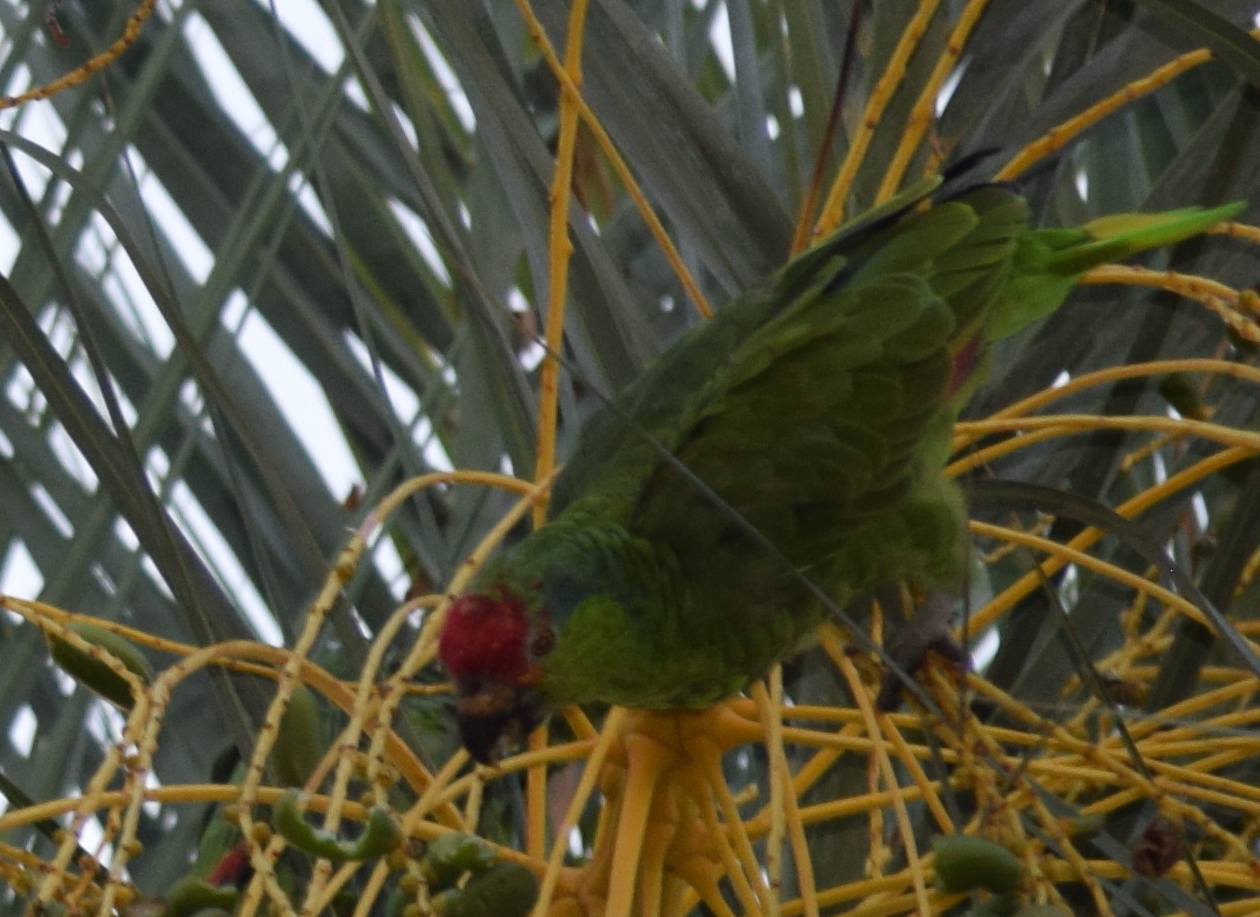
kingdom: Animalia
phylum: Chordata
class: Aves
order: Psittaciformes
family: Psittacidae
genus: Amazona
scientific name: Amazona viridigenalis
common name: Red-crowned amazon
